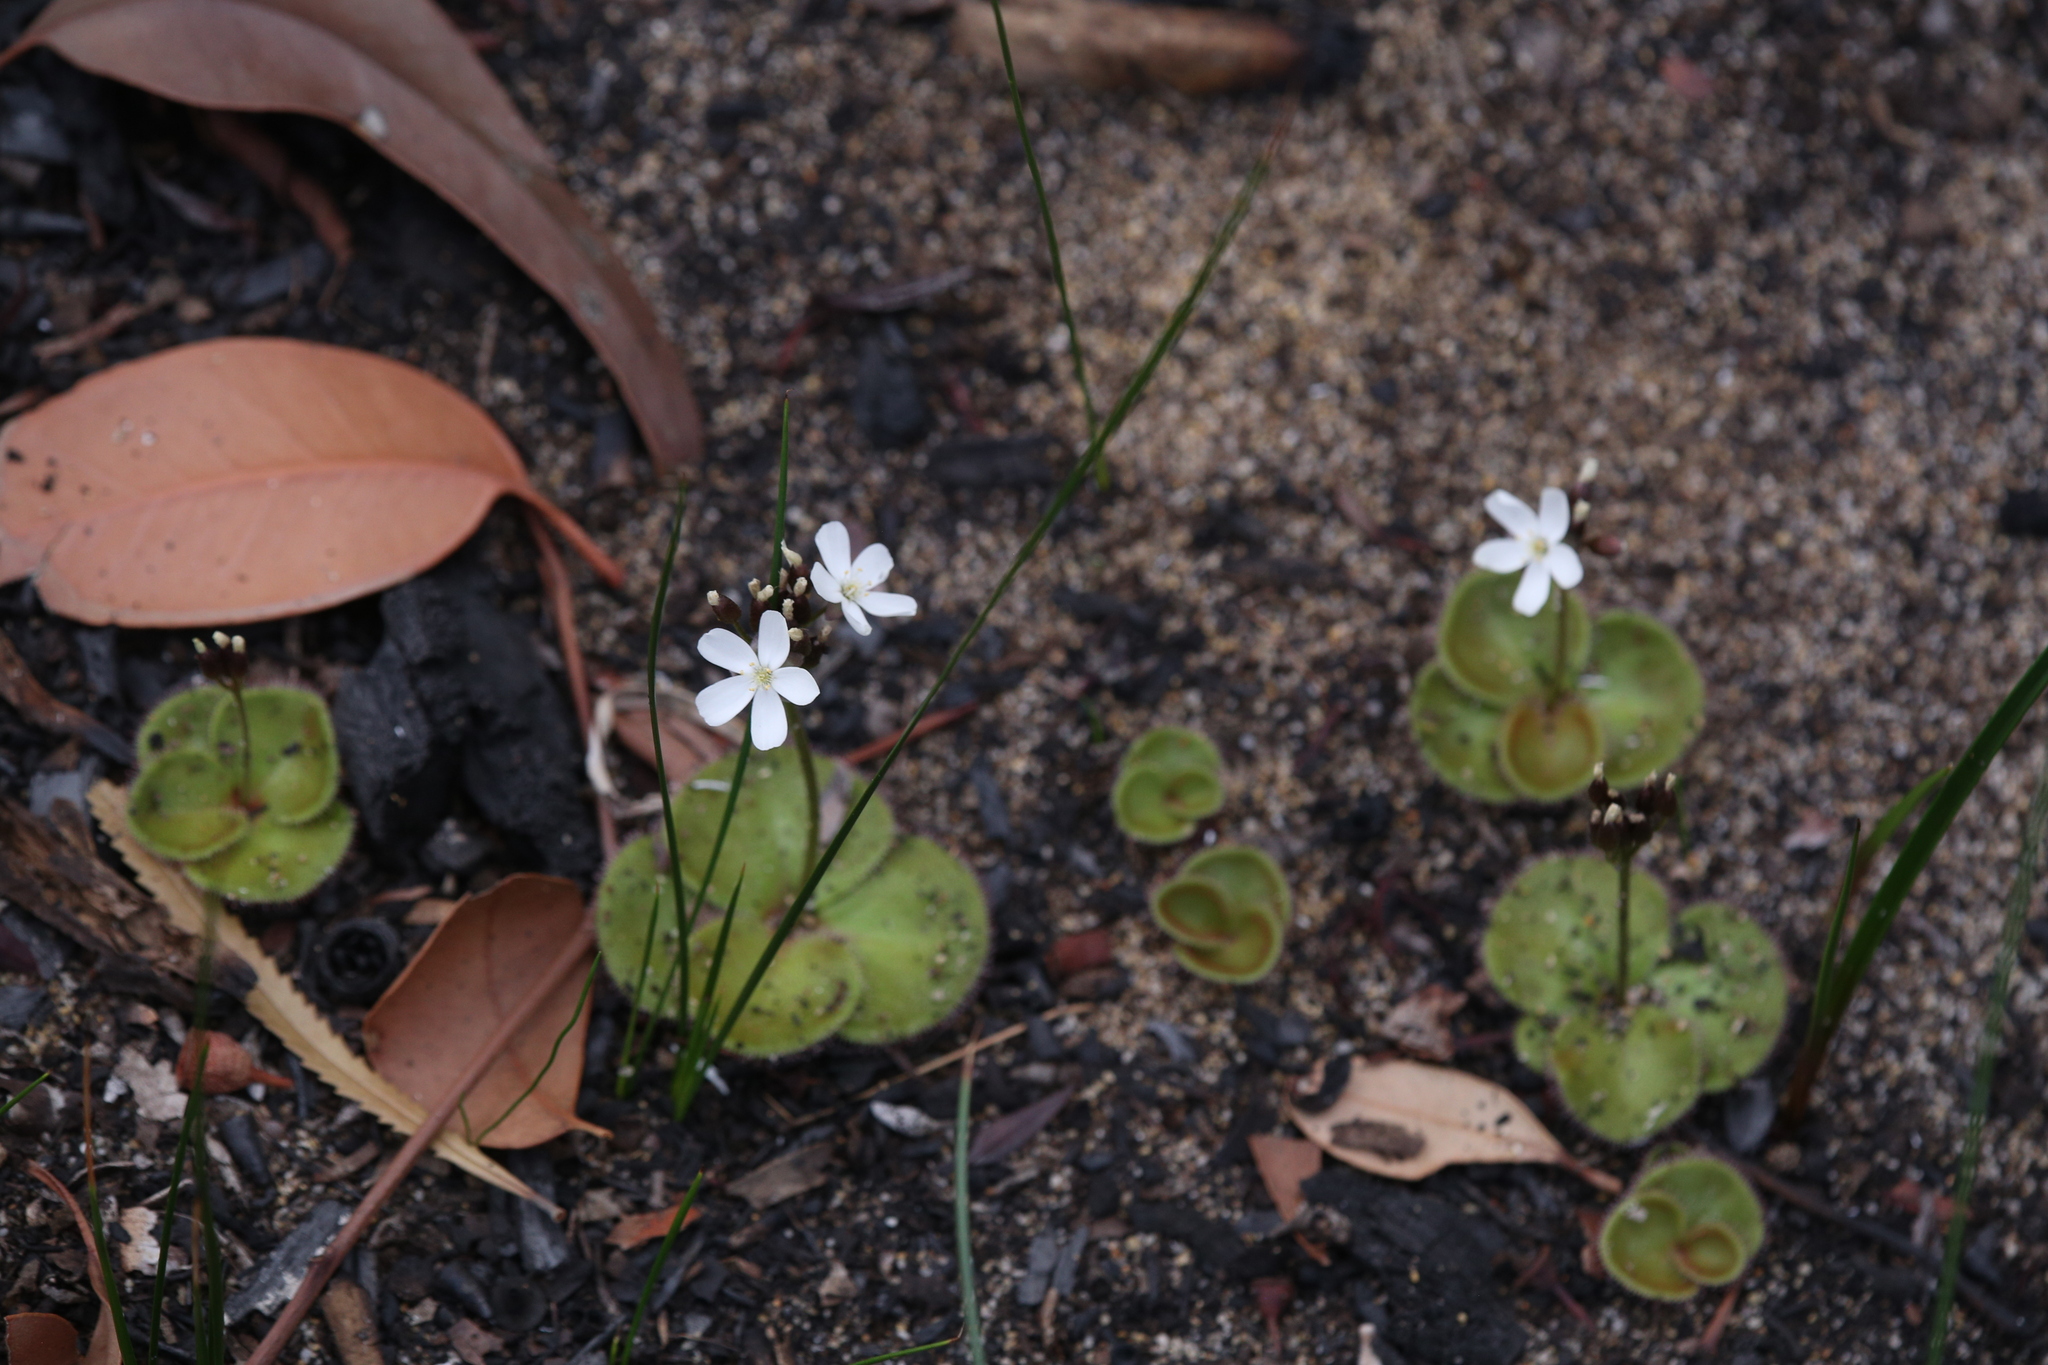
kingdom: Plantae
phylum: Tracheophyta
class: Magnoliopsida
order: Caryophyllales
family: Droseraceae
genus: Drosera
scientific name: Drosera erythrorhiza
